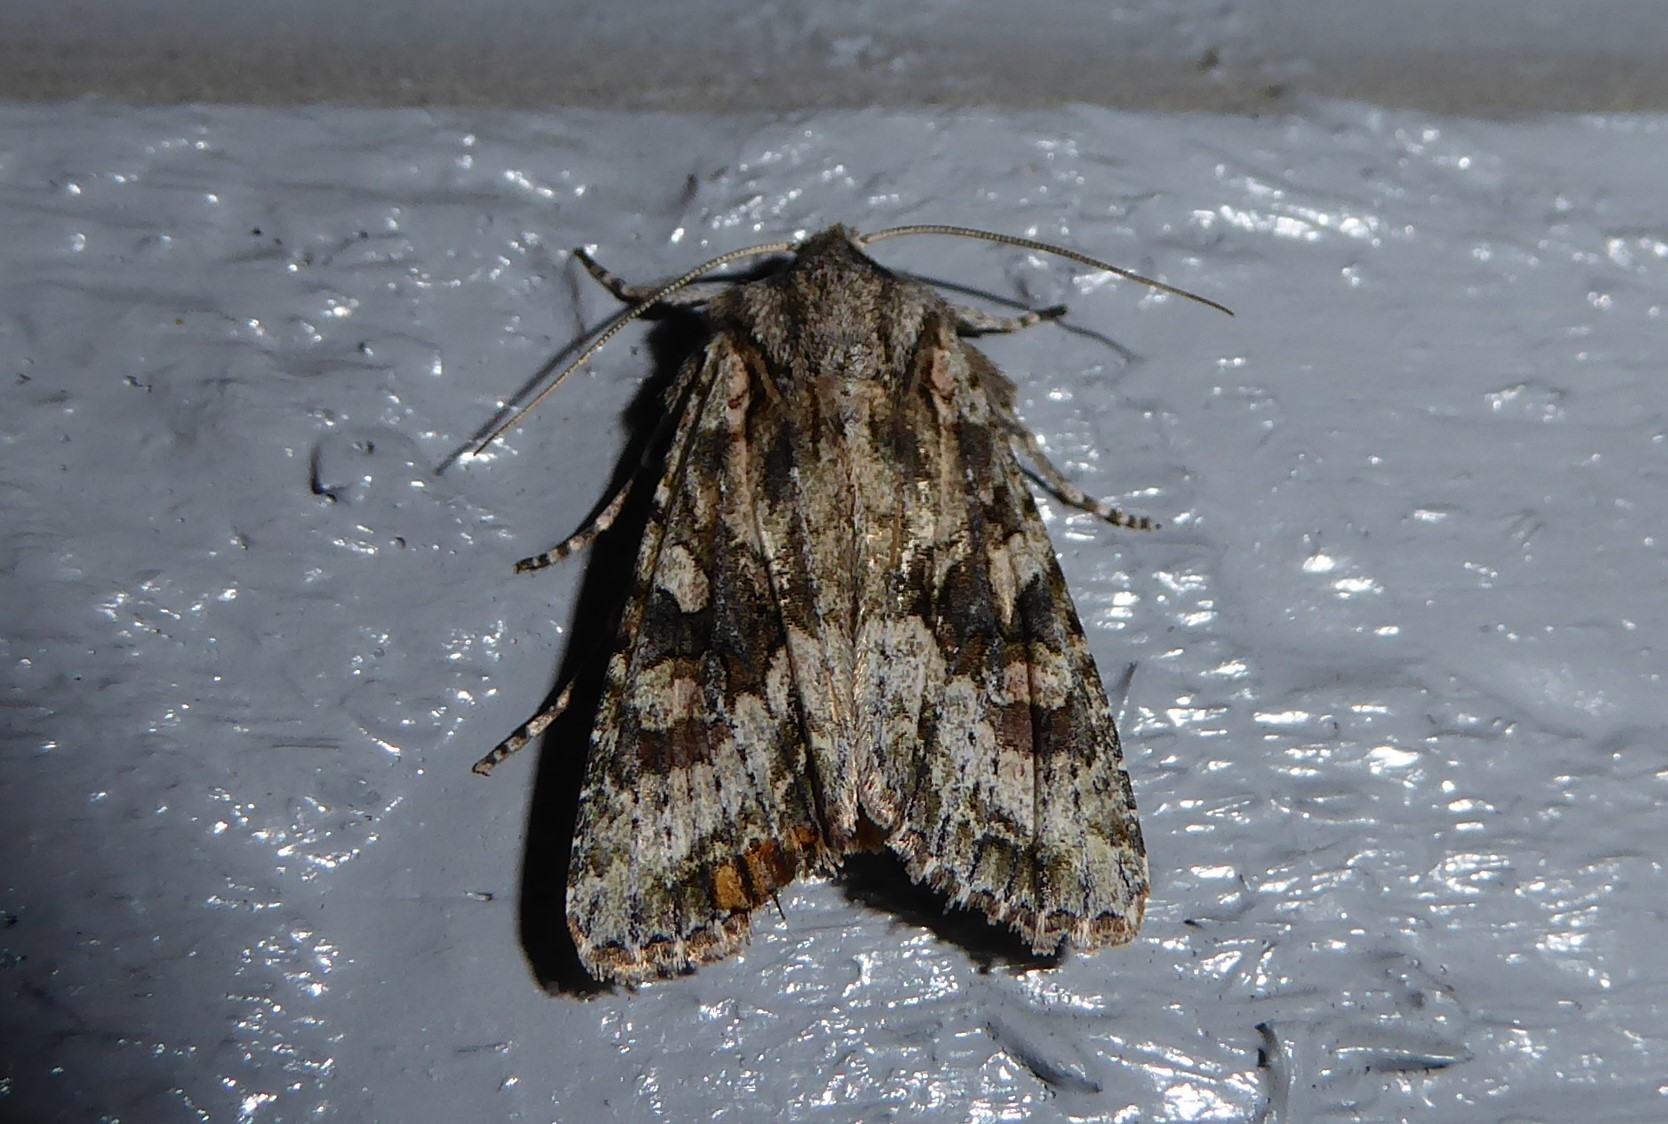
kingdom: Animalia
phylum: Arthropoda
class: Insecta
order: Lepidoptera
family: Noctuidae
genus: Ichneutica
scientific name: Ichneutica mutans
